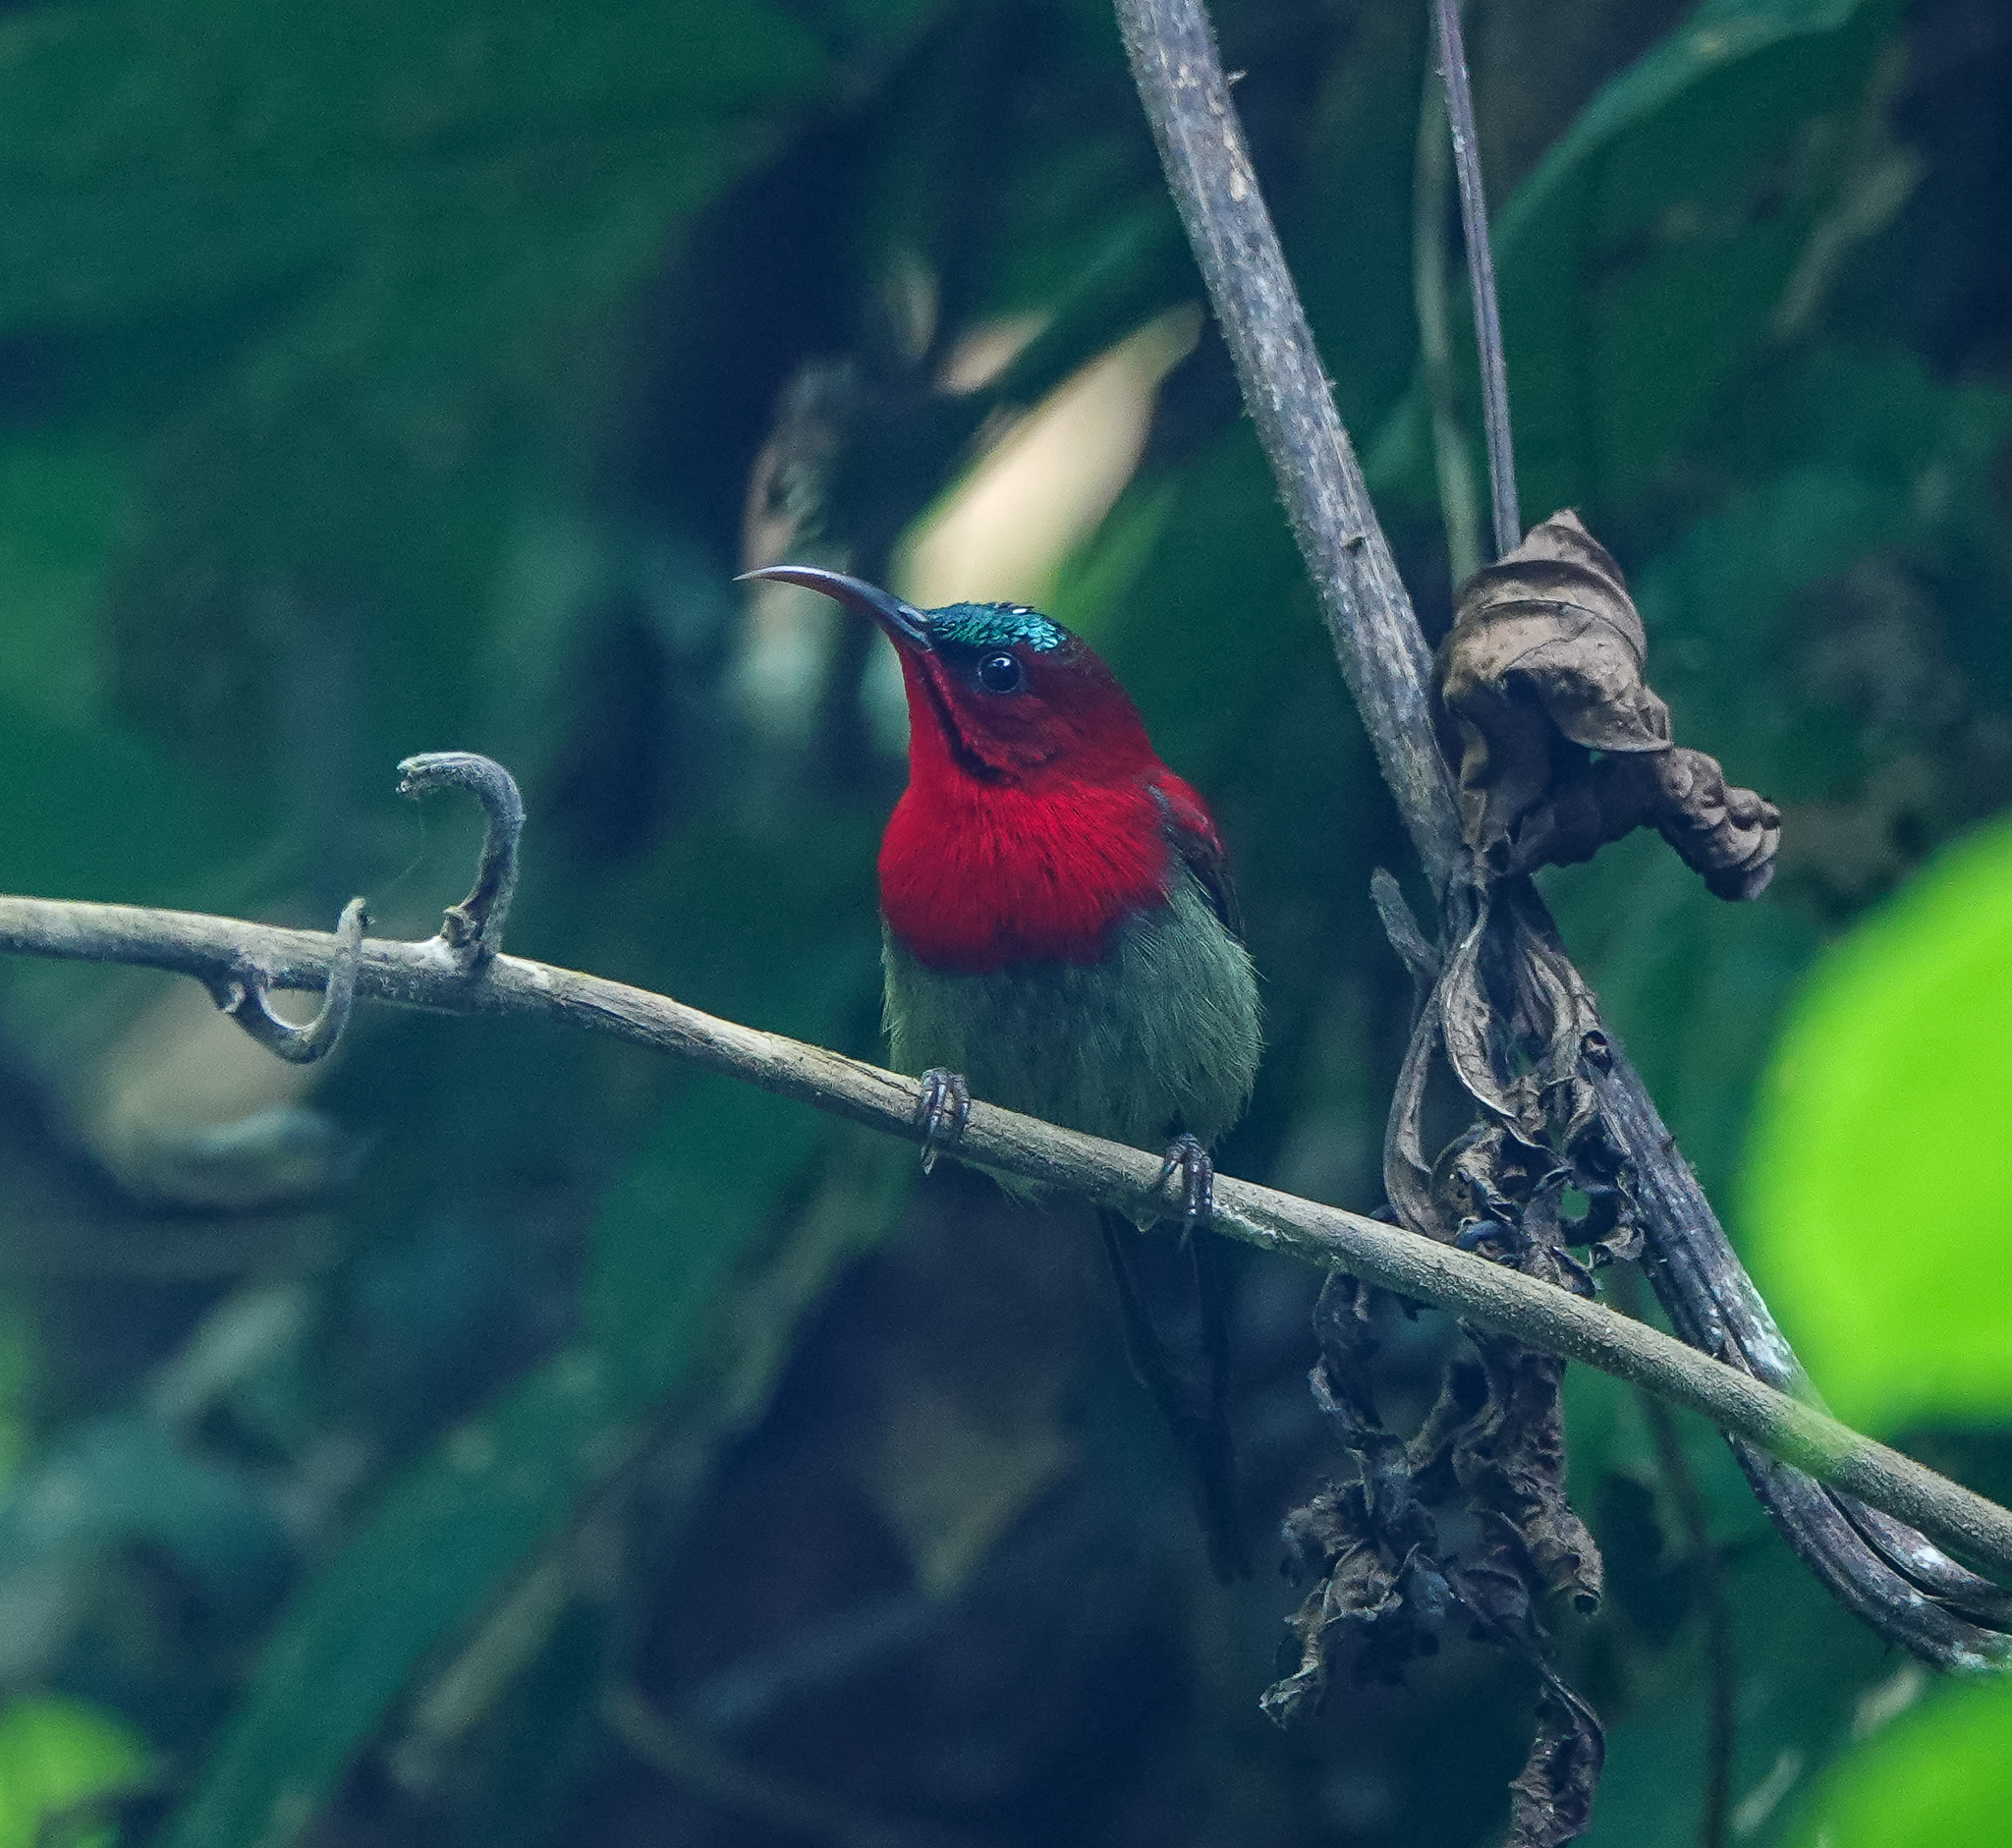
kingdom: Animalia
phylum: Chordata
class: Aves
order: Passeriformes
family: Nectariniidae
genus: Aethopyga
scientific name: Aethopyga siparaja
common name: Crimson sunbird
